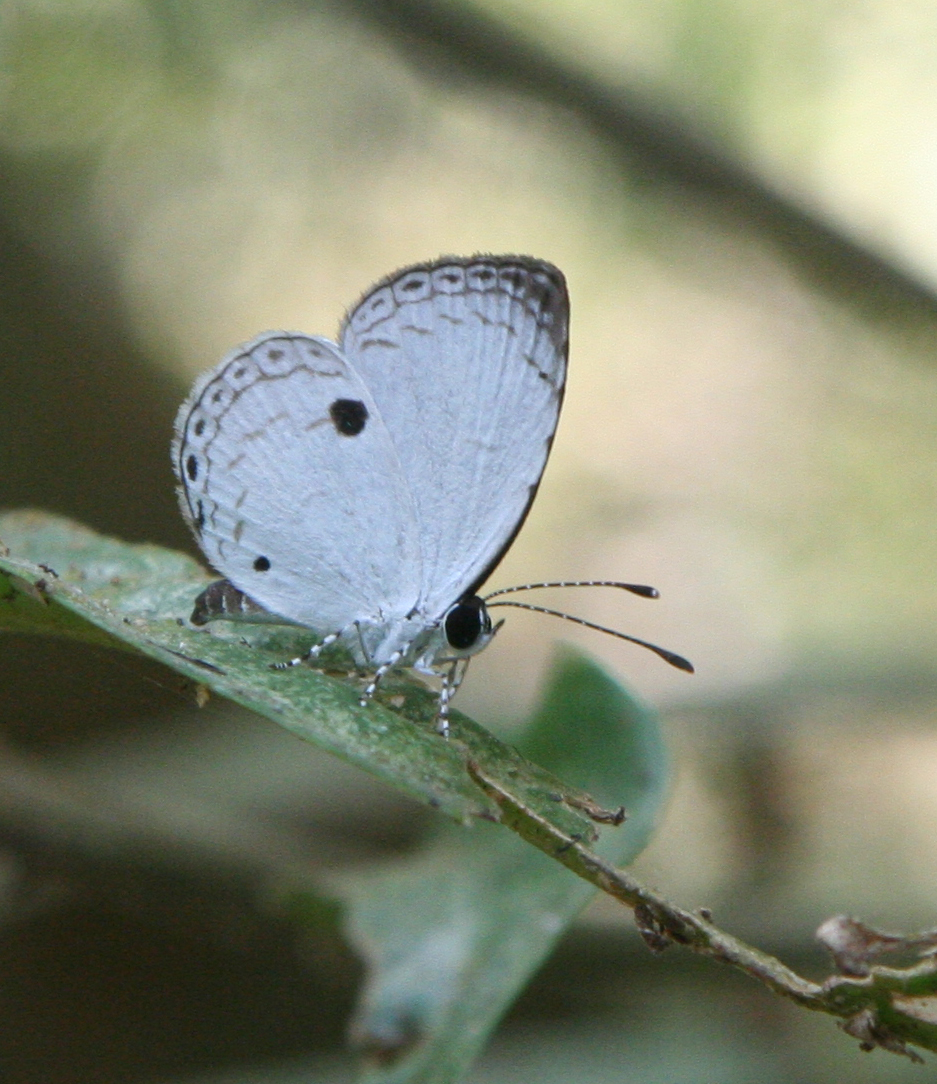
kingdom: Animalia
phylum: Arthropoda
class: Insecta
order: Lepidoptera
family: Lycaenidae
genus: Neopithecops
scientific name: Neopithecops zalmora
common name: Quaker
